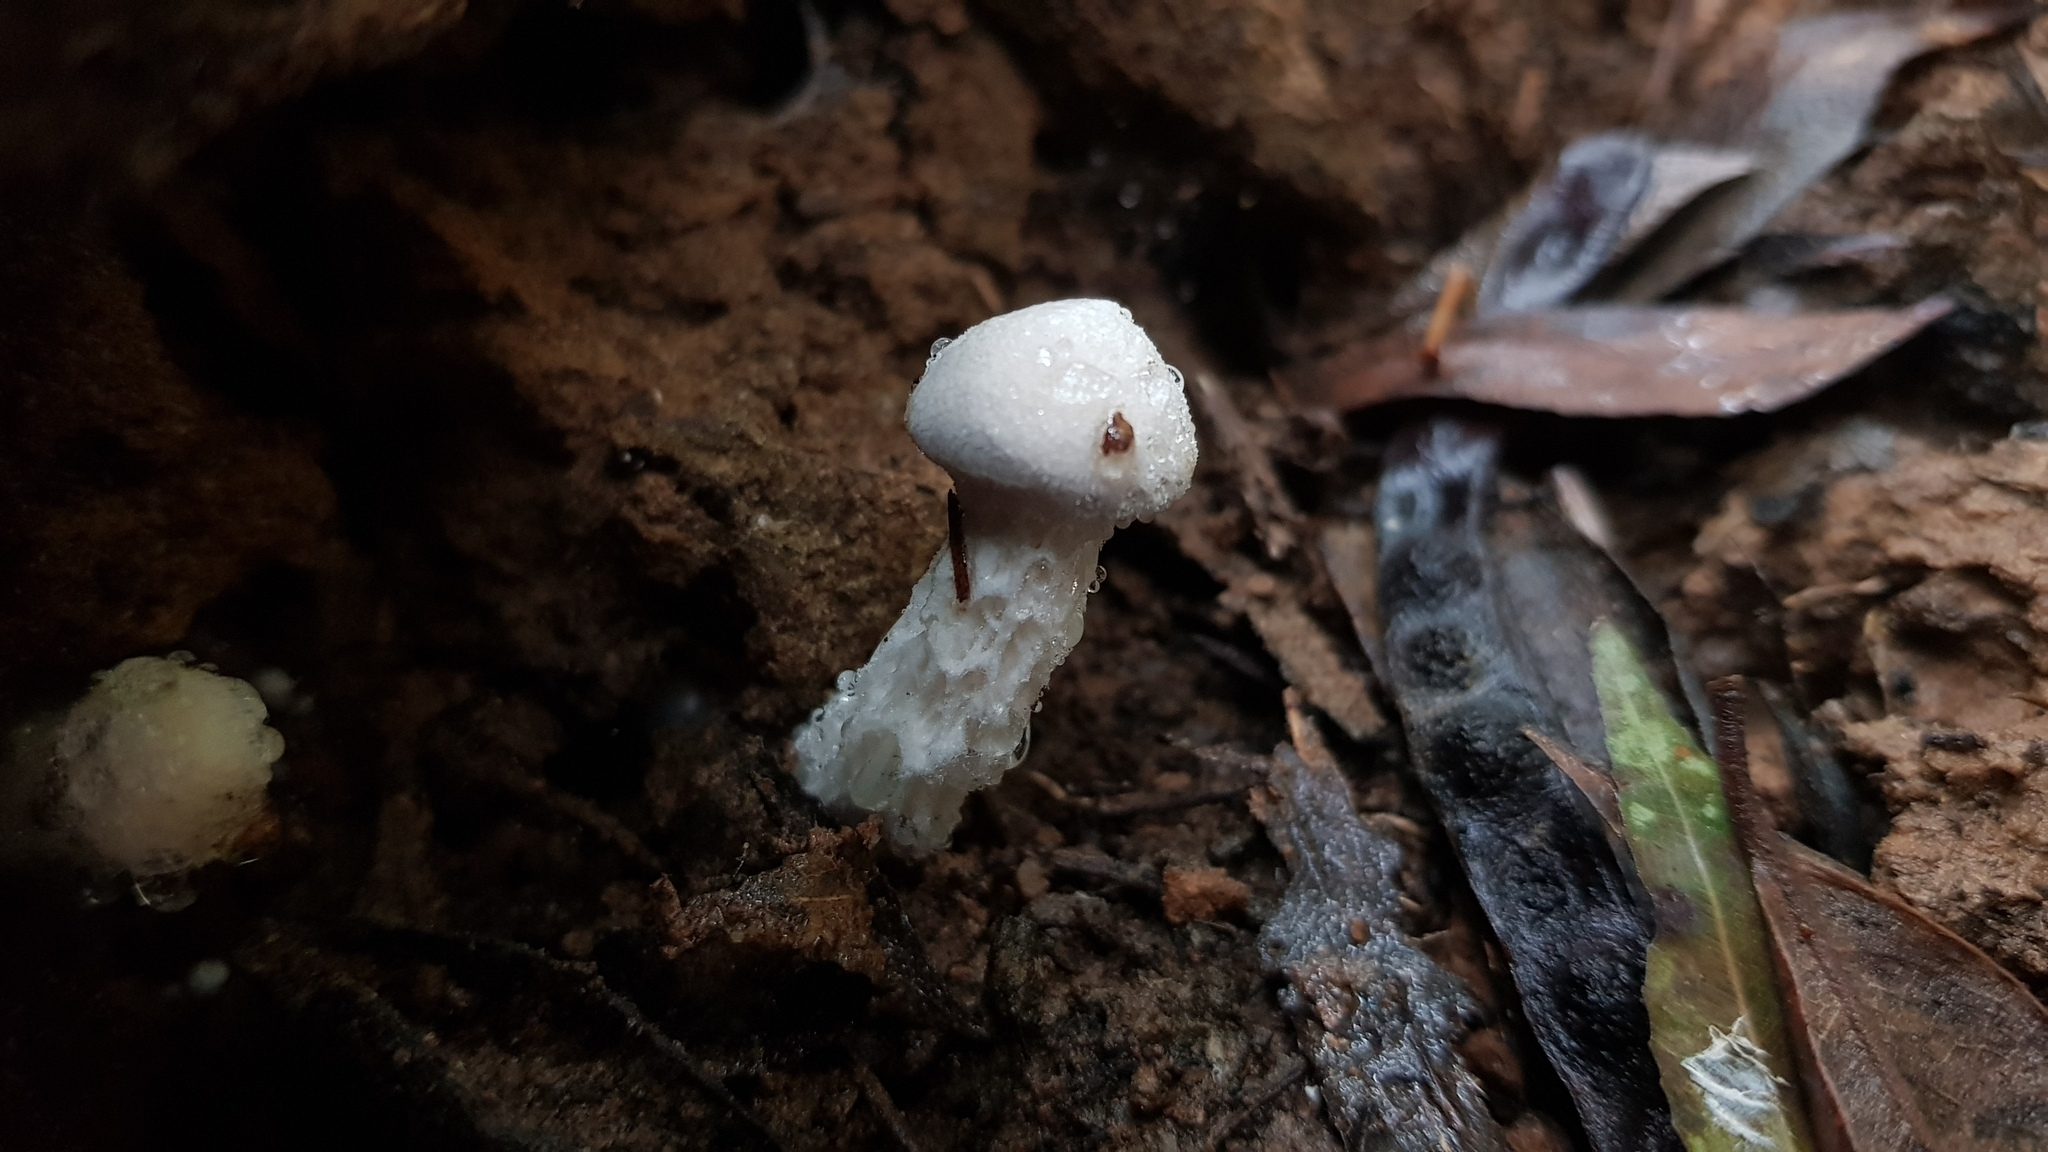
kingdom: Fungi
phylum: Basidiomycota
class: Agaricomycetes
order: Boletales
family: Boletaceae
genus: Fistulinella
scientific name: Fistulinella nivea
